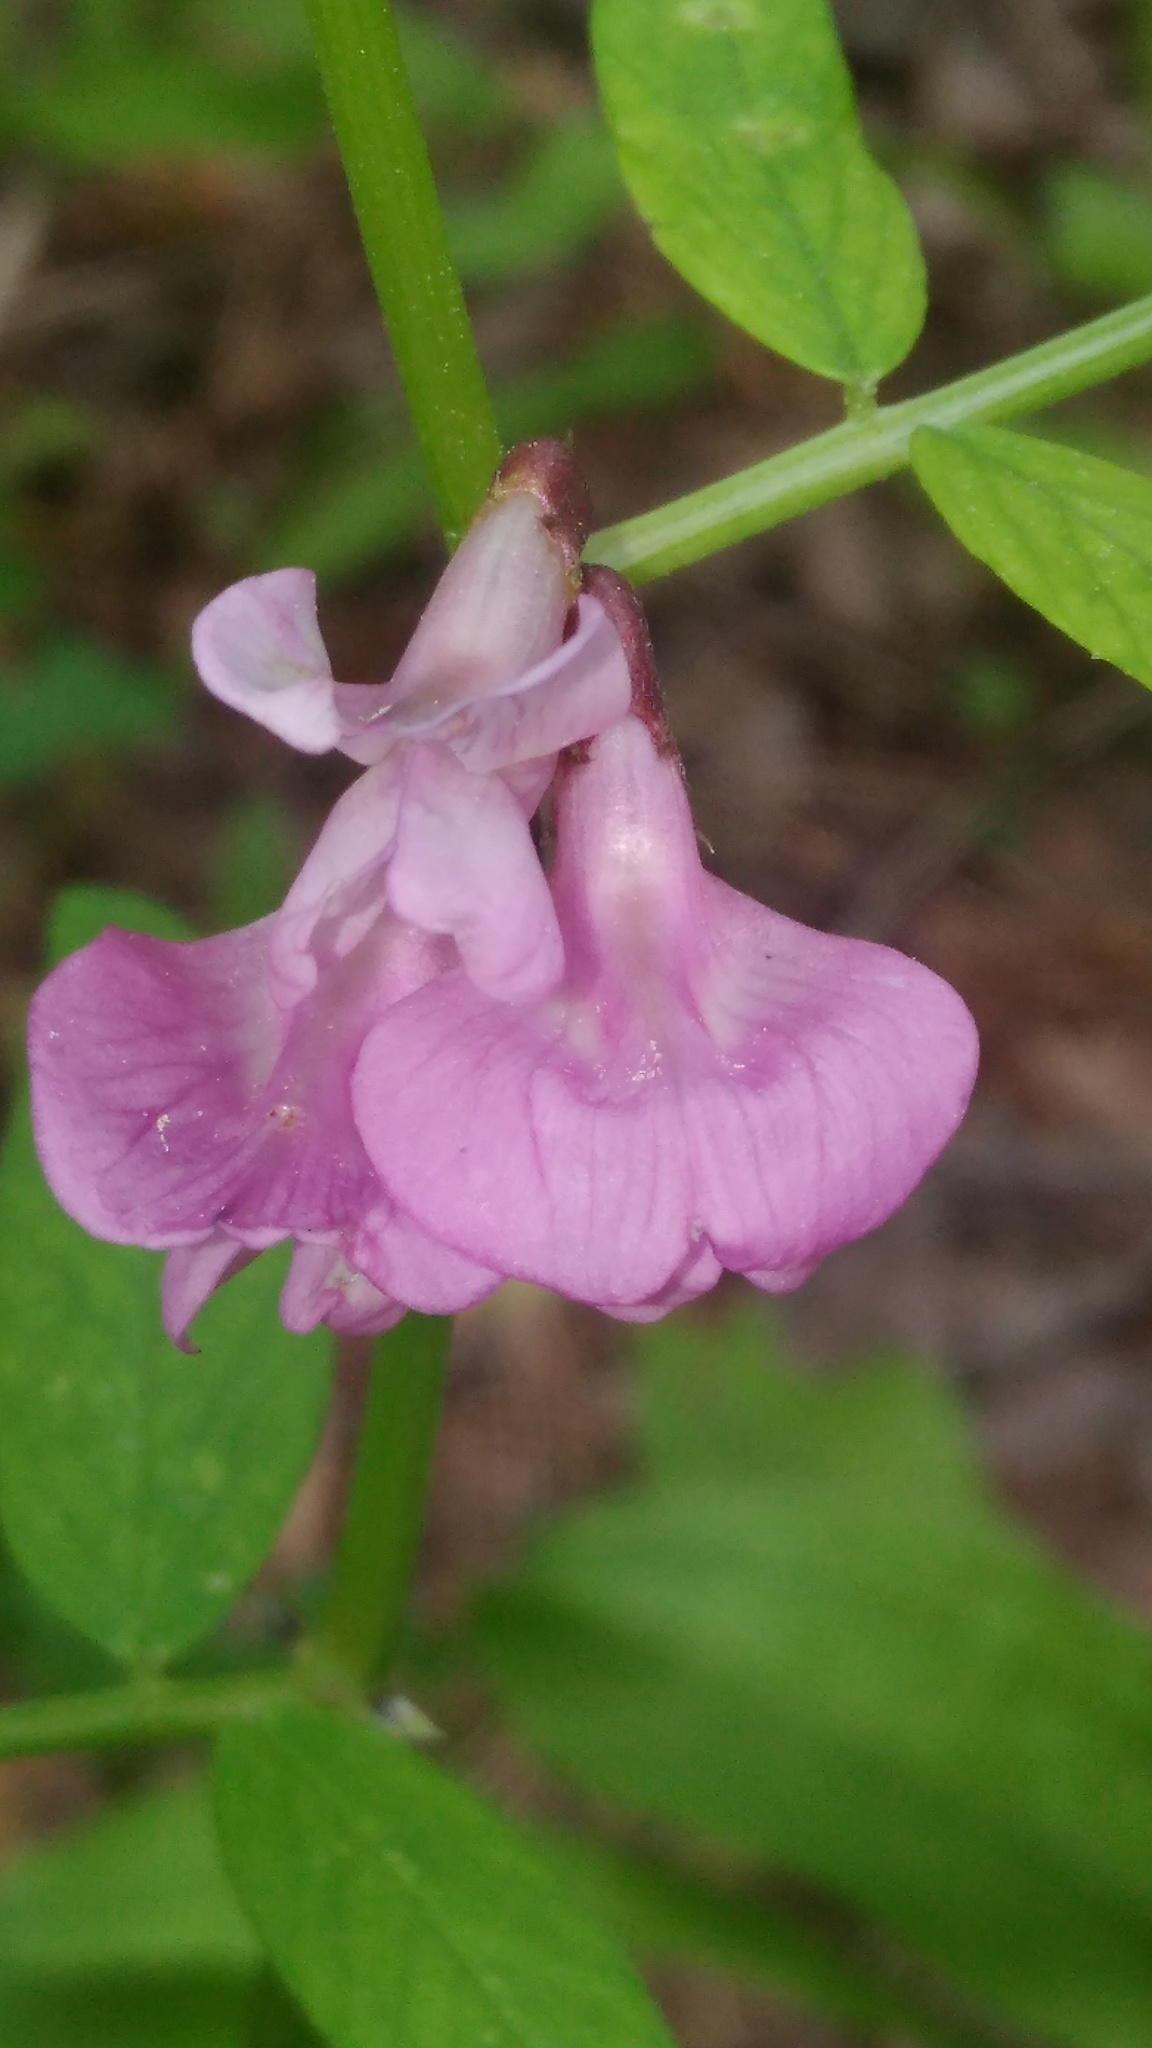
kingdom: Plantae
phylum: Tracheophyta
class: Magnoliopsida
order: Fabales
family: Fabaceae
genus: Vicia
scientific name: Vicia sepium
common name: Bush vetch
